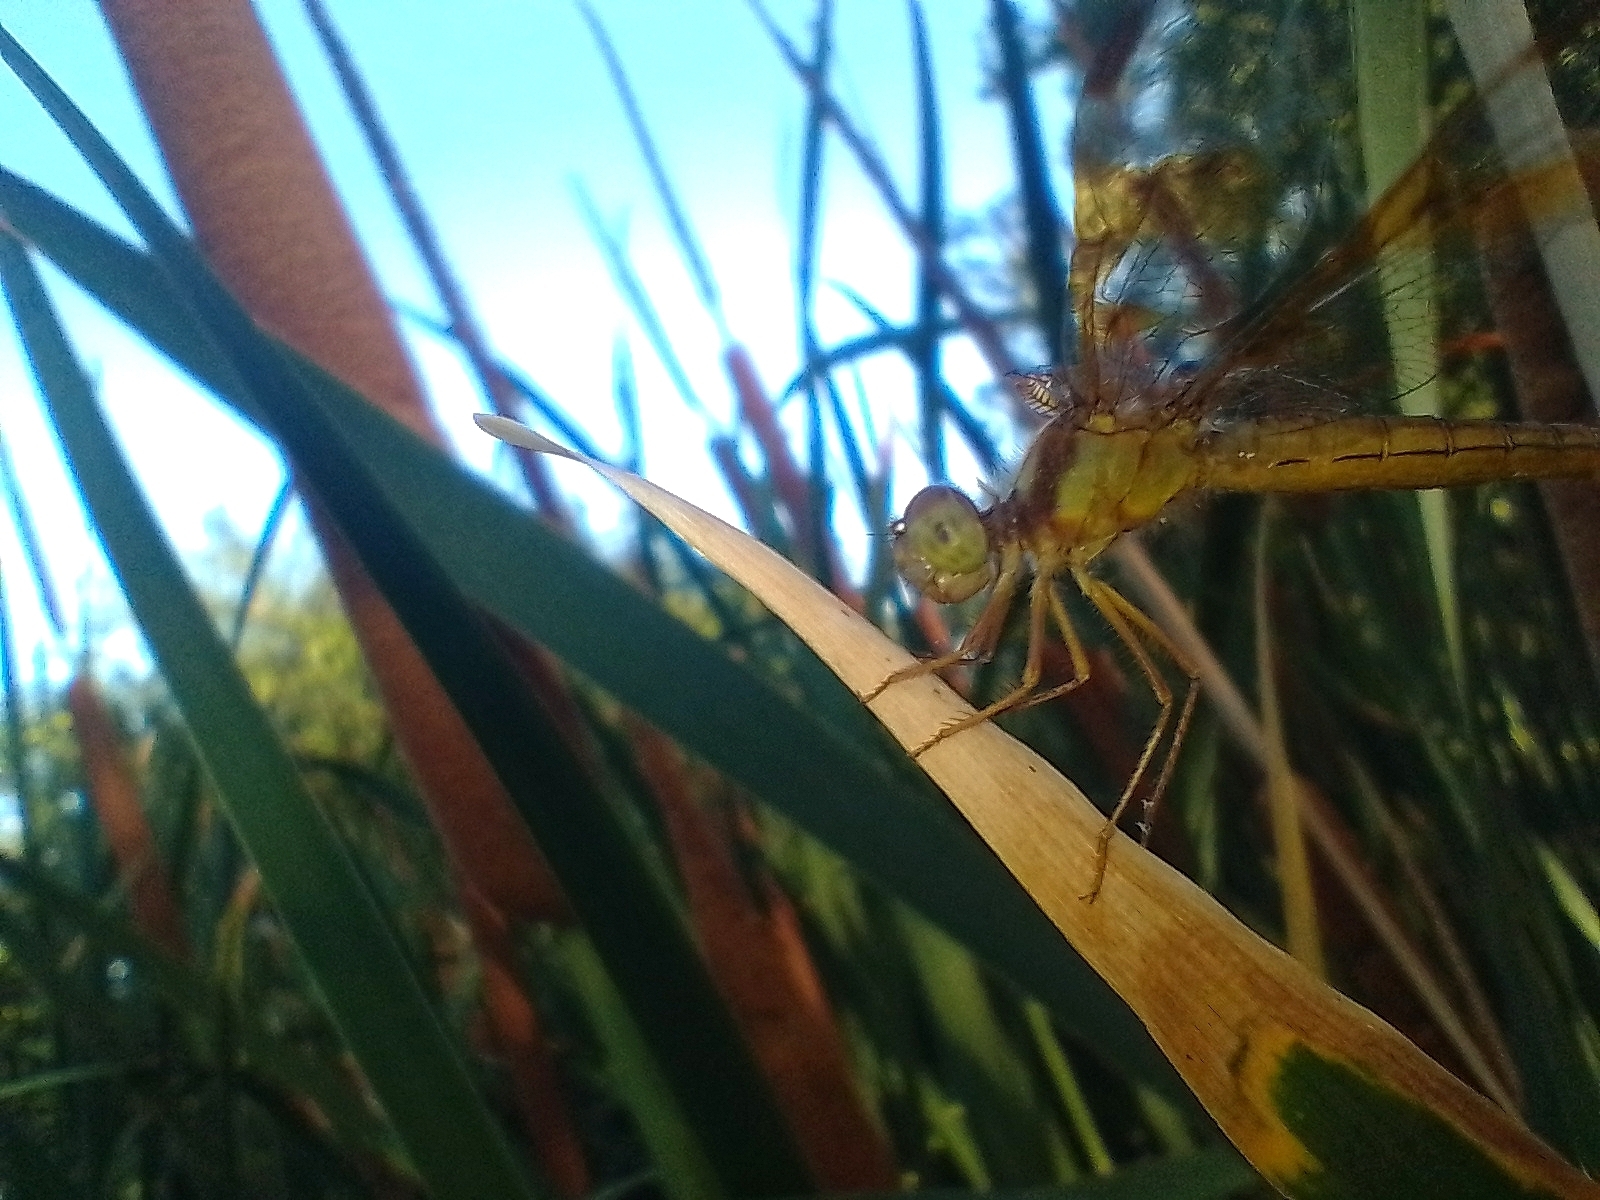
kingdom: Animalia
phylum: Arthropoda
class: Insecta
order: Odonata
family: Libellulidae
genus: Perithemis
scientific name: Perithemis tenera
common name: Eastern amberwing
